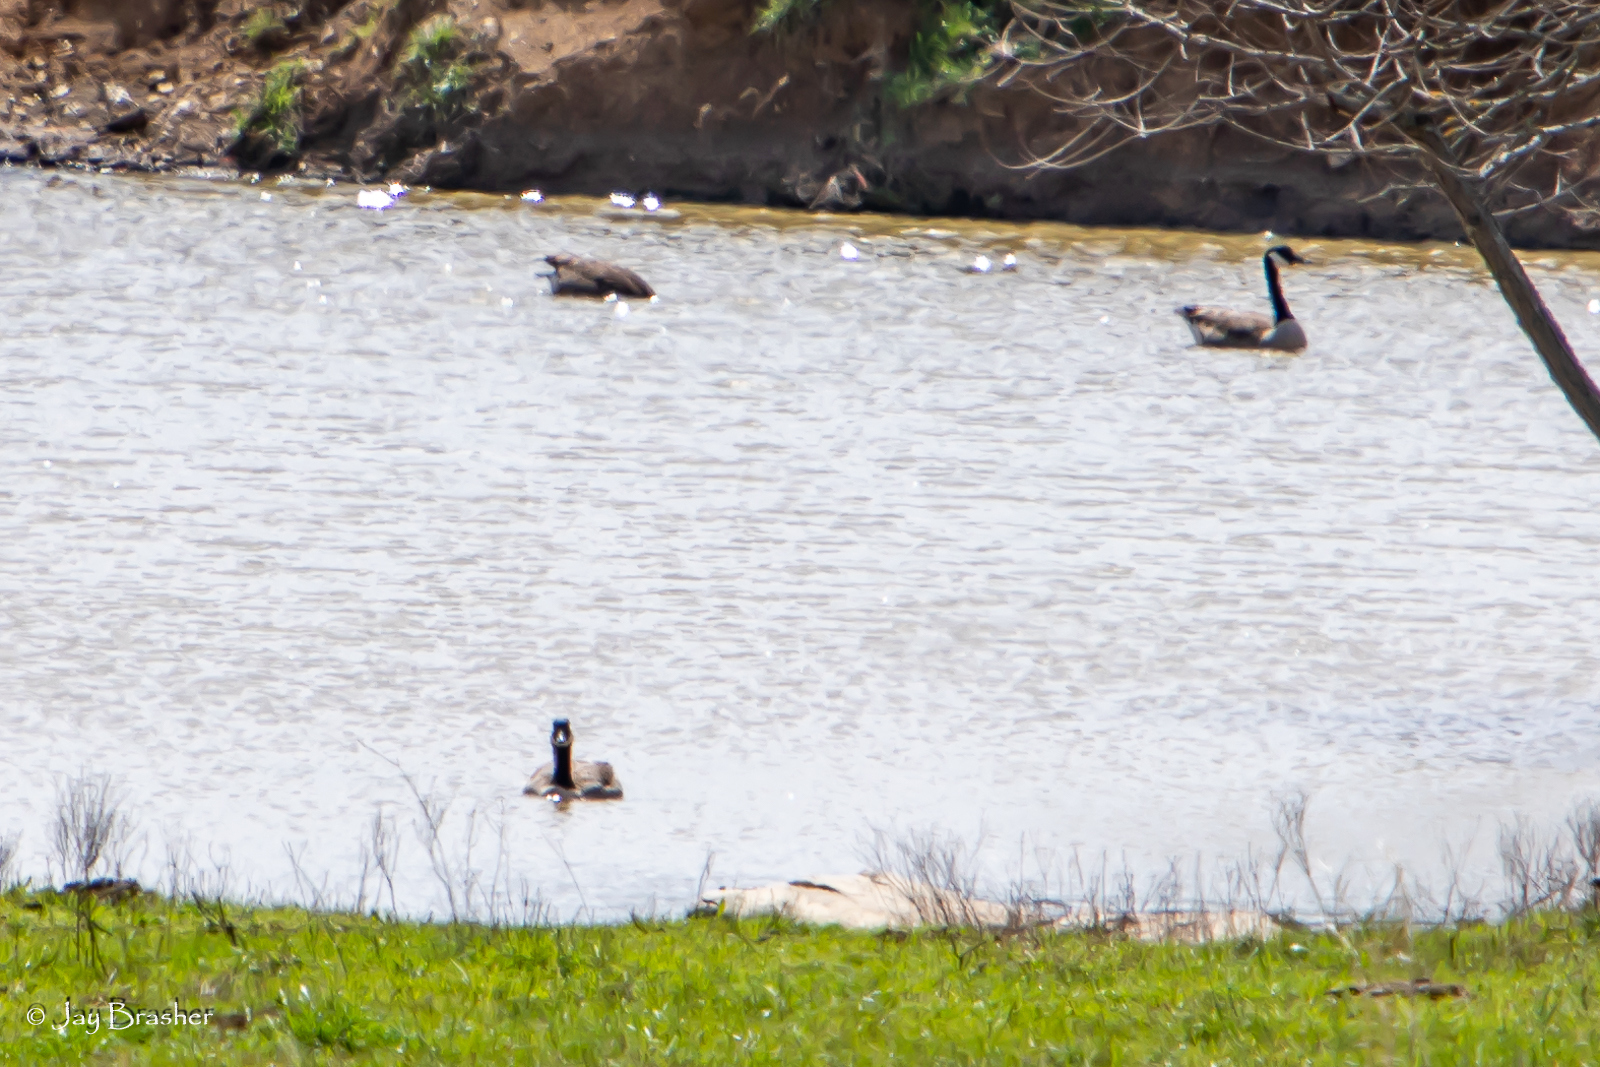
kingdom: Animalia
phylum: Chordata
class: Aves
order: Anseriformes
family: Anatidae
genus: Branta
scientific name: Branta canadensis
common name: Canada goose
